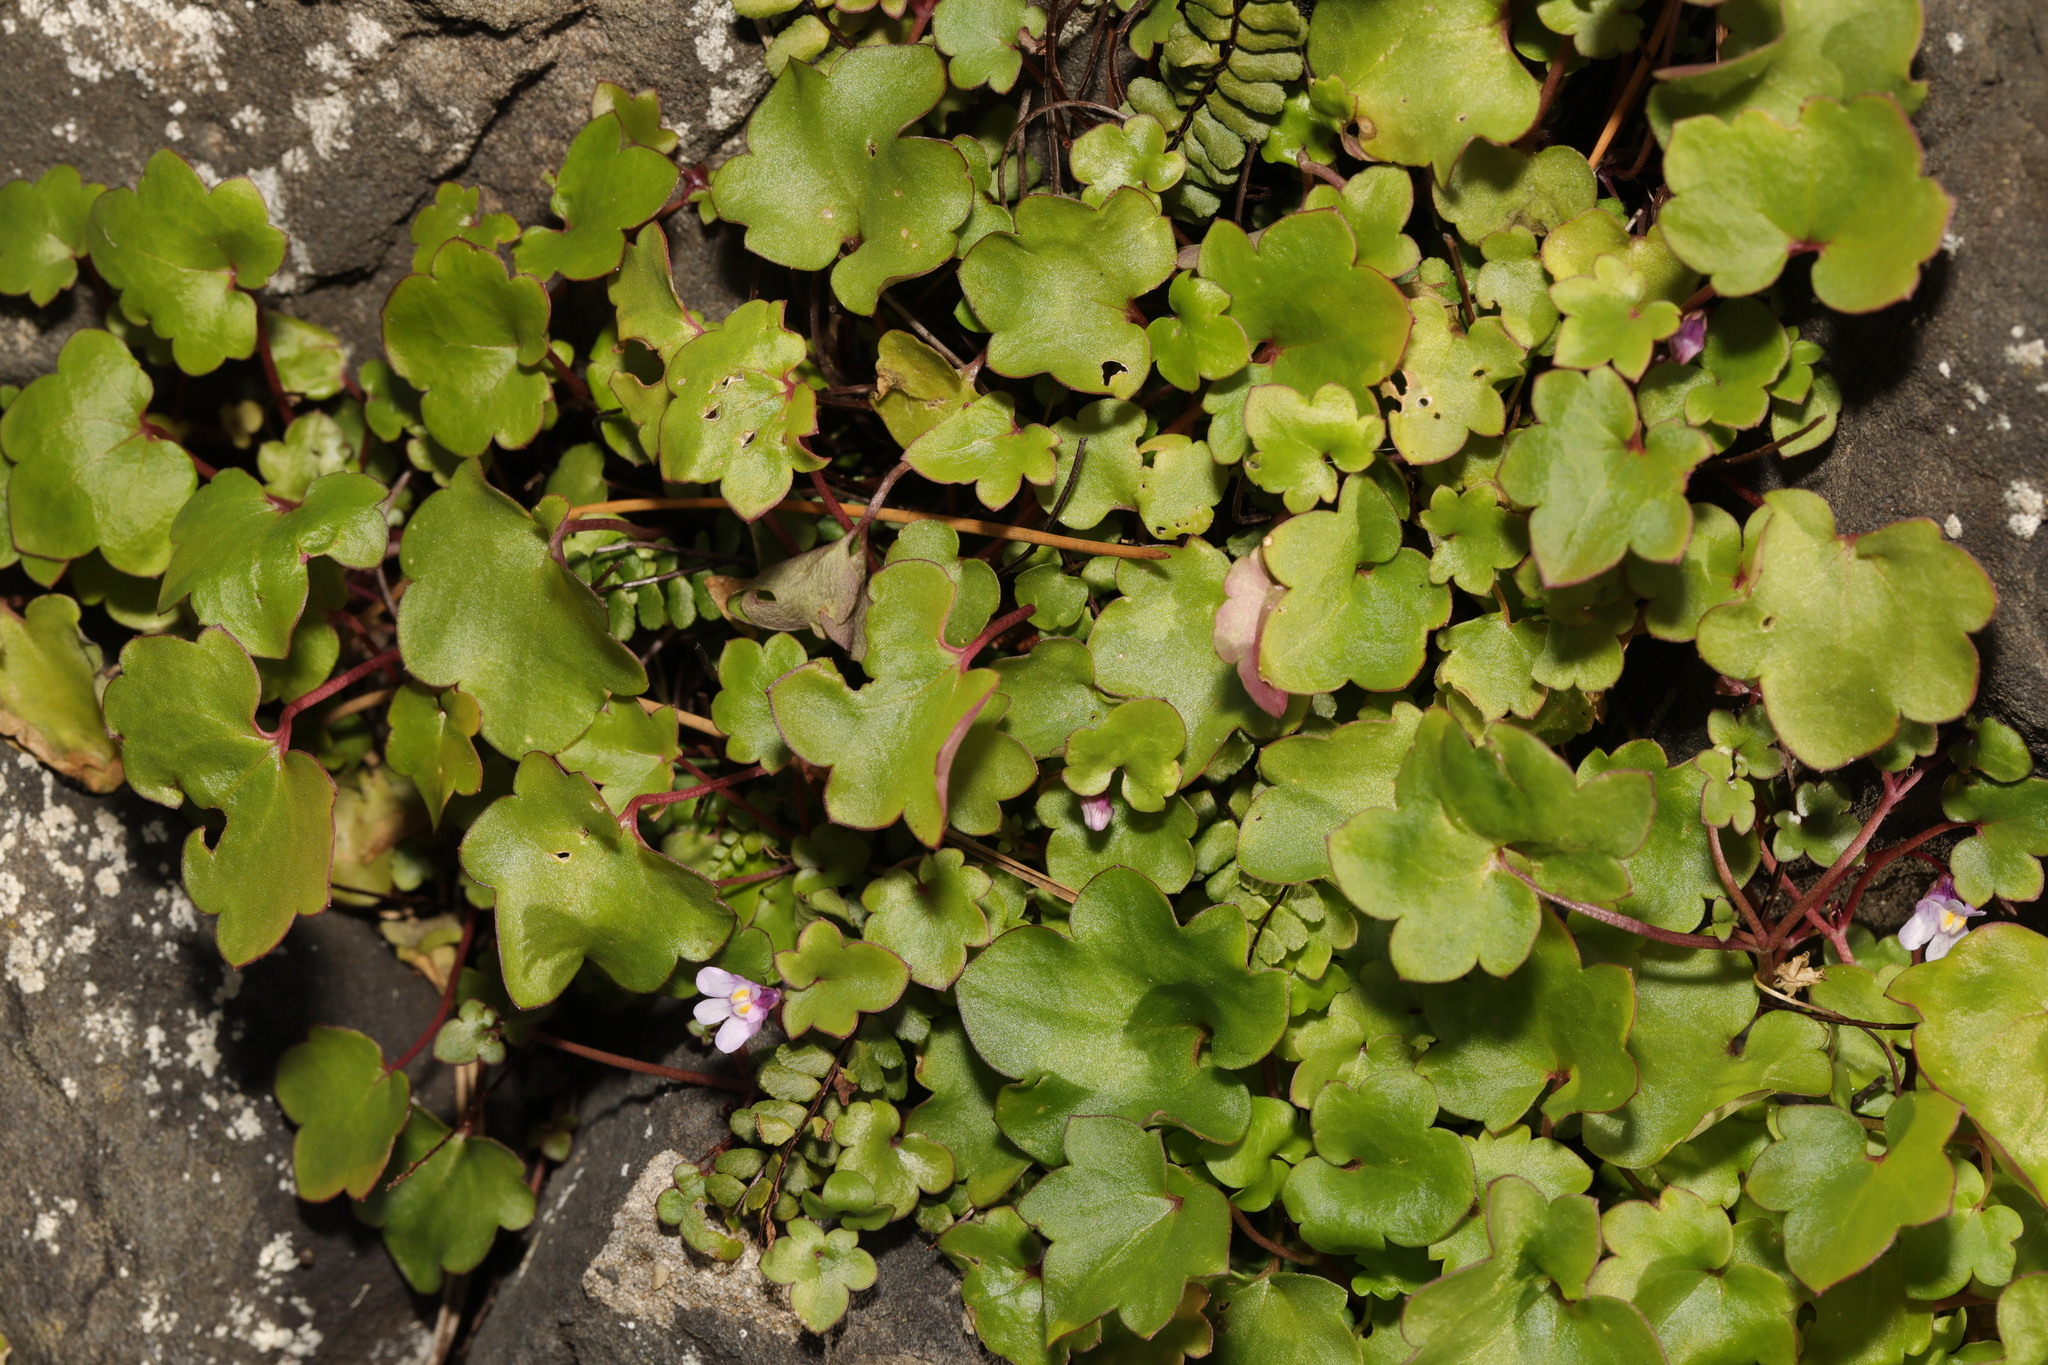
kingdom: Plantae
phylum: Tracheophyta
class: Magnoliopsida
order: Lamiales
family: Plantaginaceae
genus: Cymbalaria
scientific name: Cymbalaria muralis
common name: Ivy-leaved toadflax
